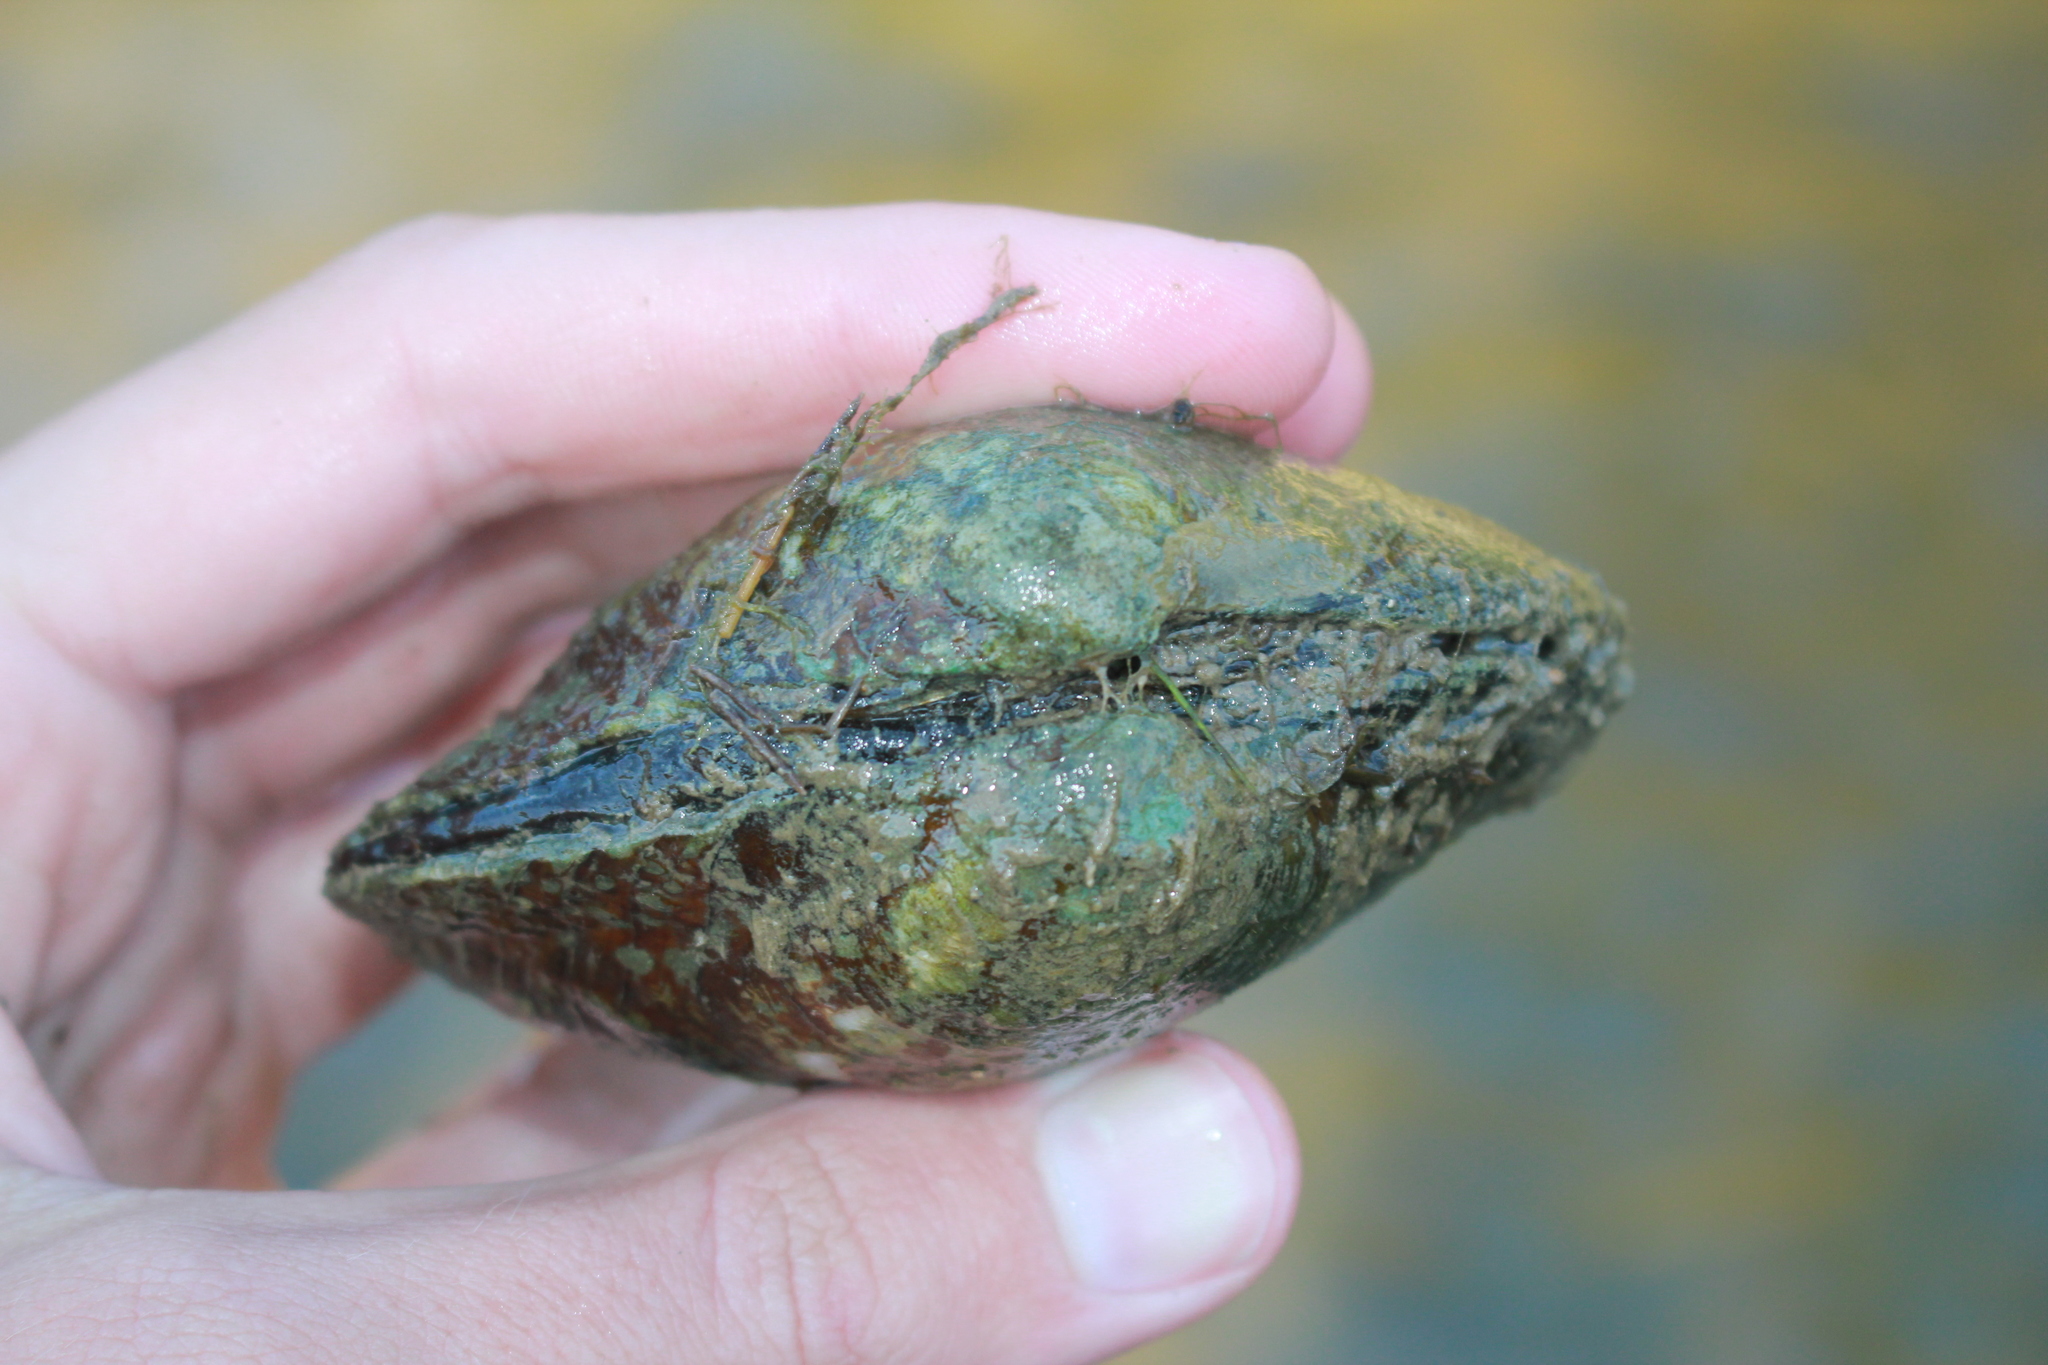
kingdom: Animalia
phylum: Mollusca
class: Bivalvia
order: Unionida
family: Unionidae
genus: Cyclonaias
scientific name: Cyclonaias tuberculata
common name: Purple wartyback
